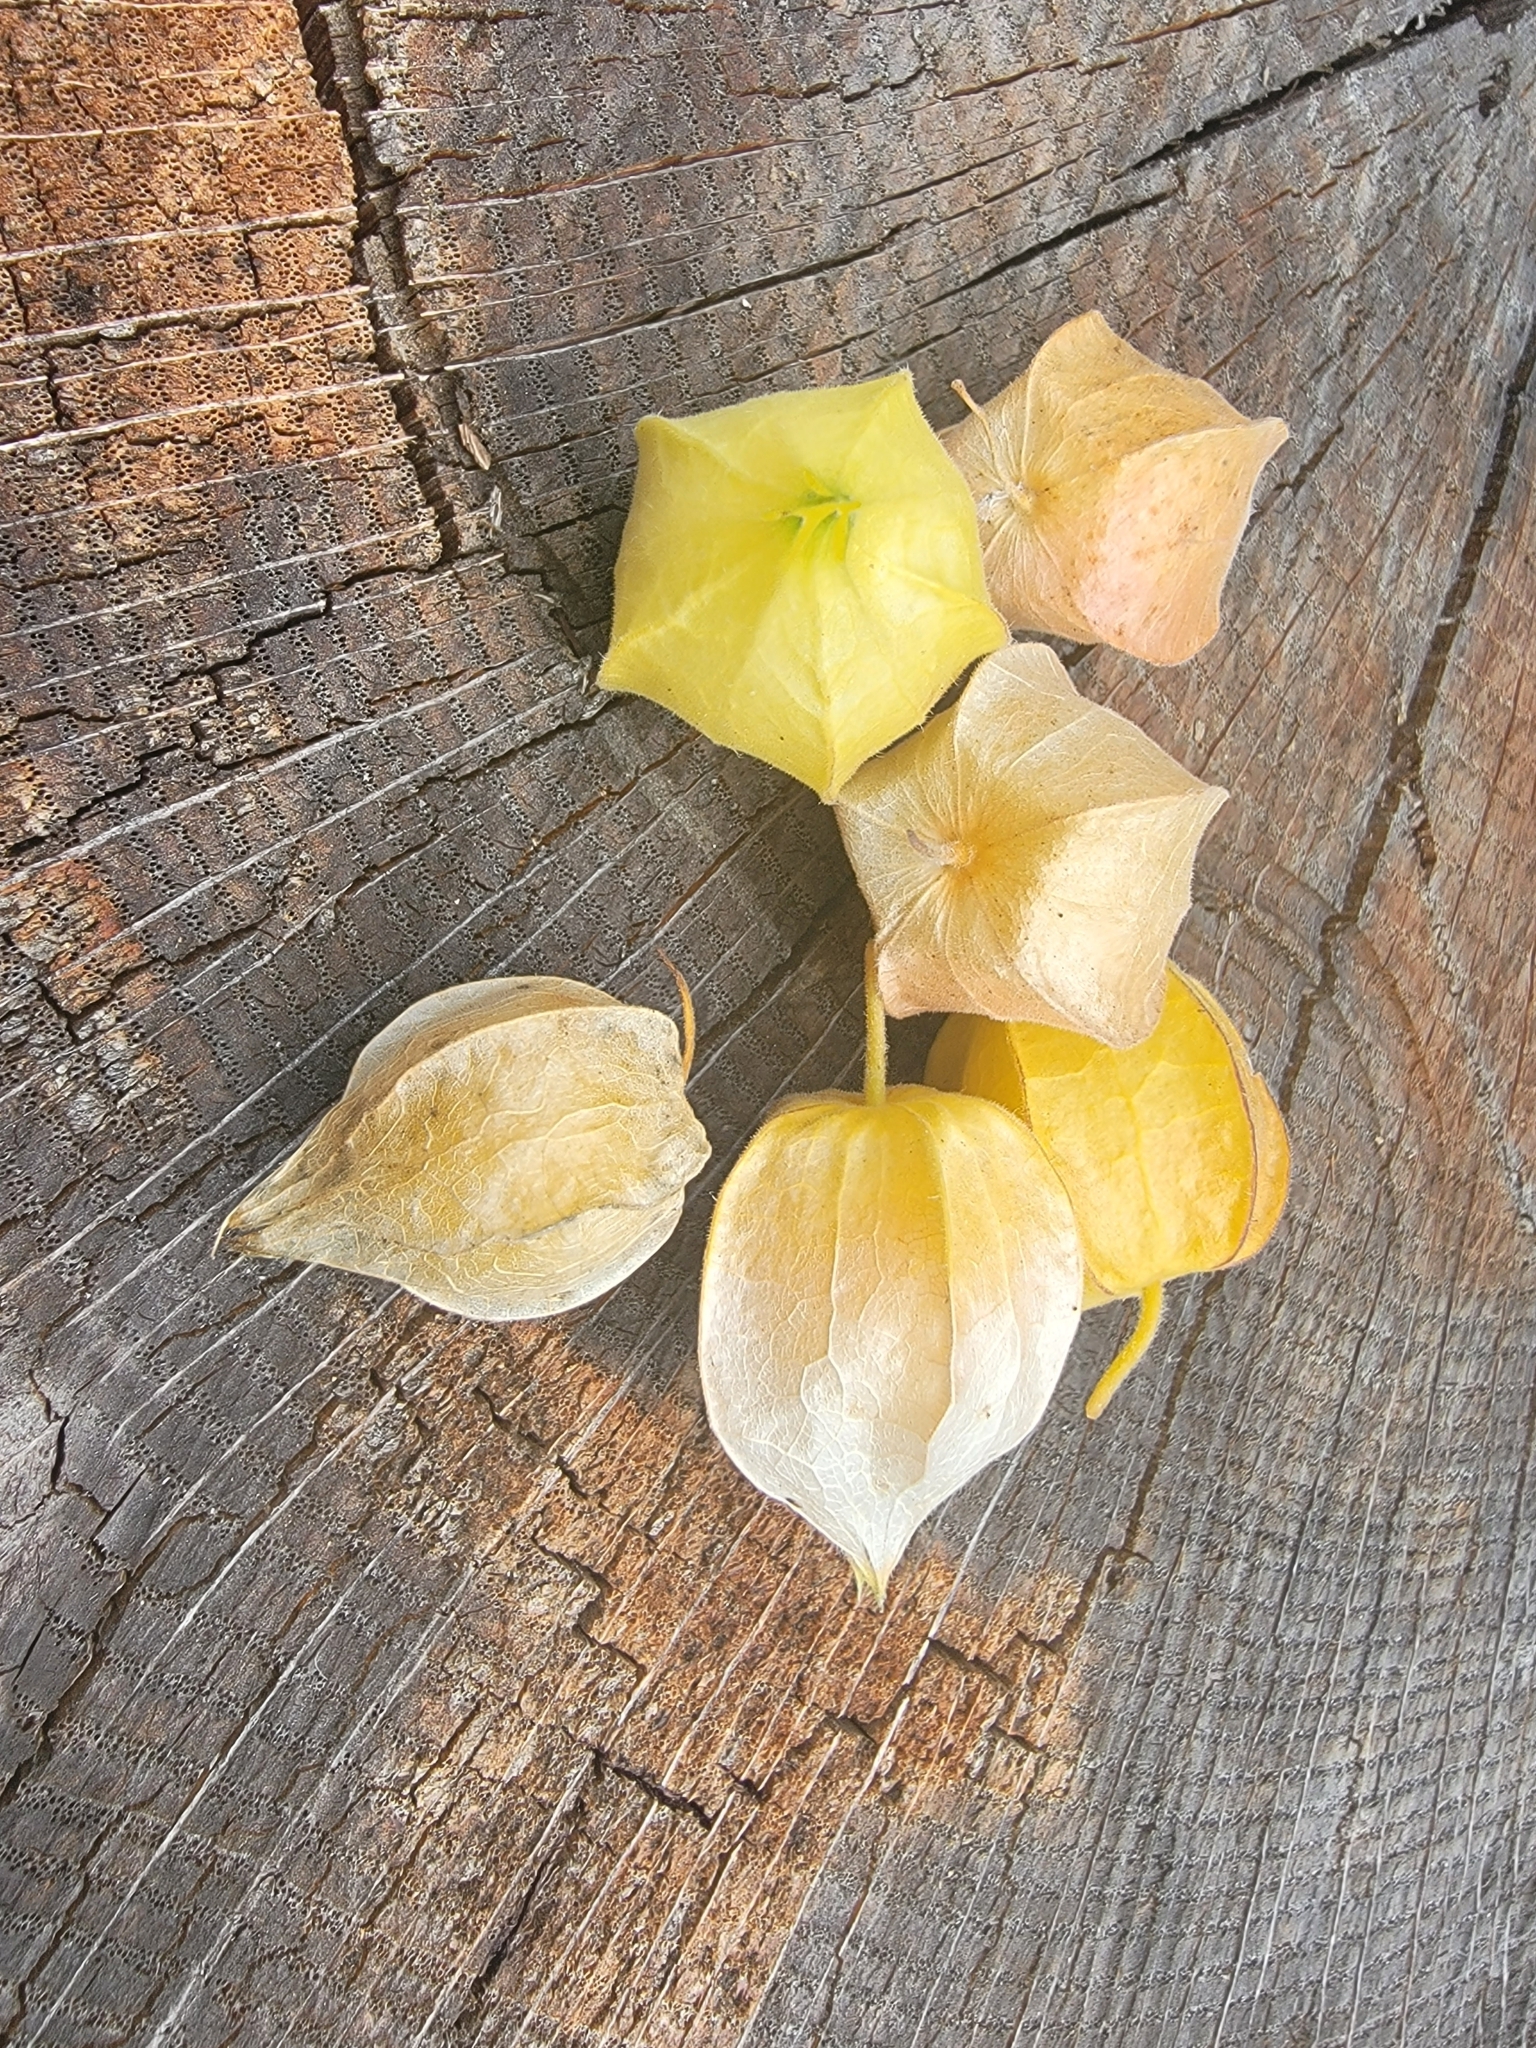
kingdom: Plantae
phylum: Tracheophyta
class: Magnoliopsida
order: Solanales
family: Solanaceae
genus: Physalis
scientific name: Physalis grisea
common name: Dwarf cape-gooseberry
